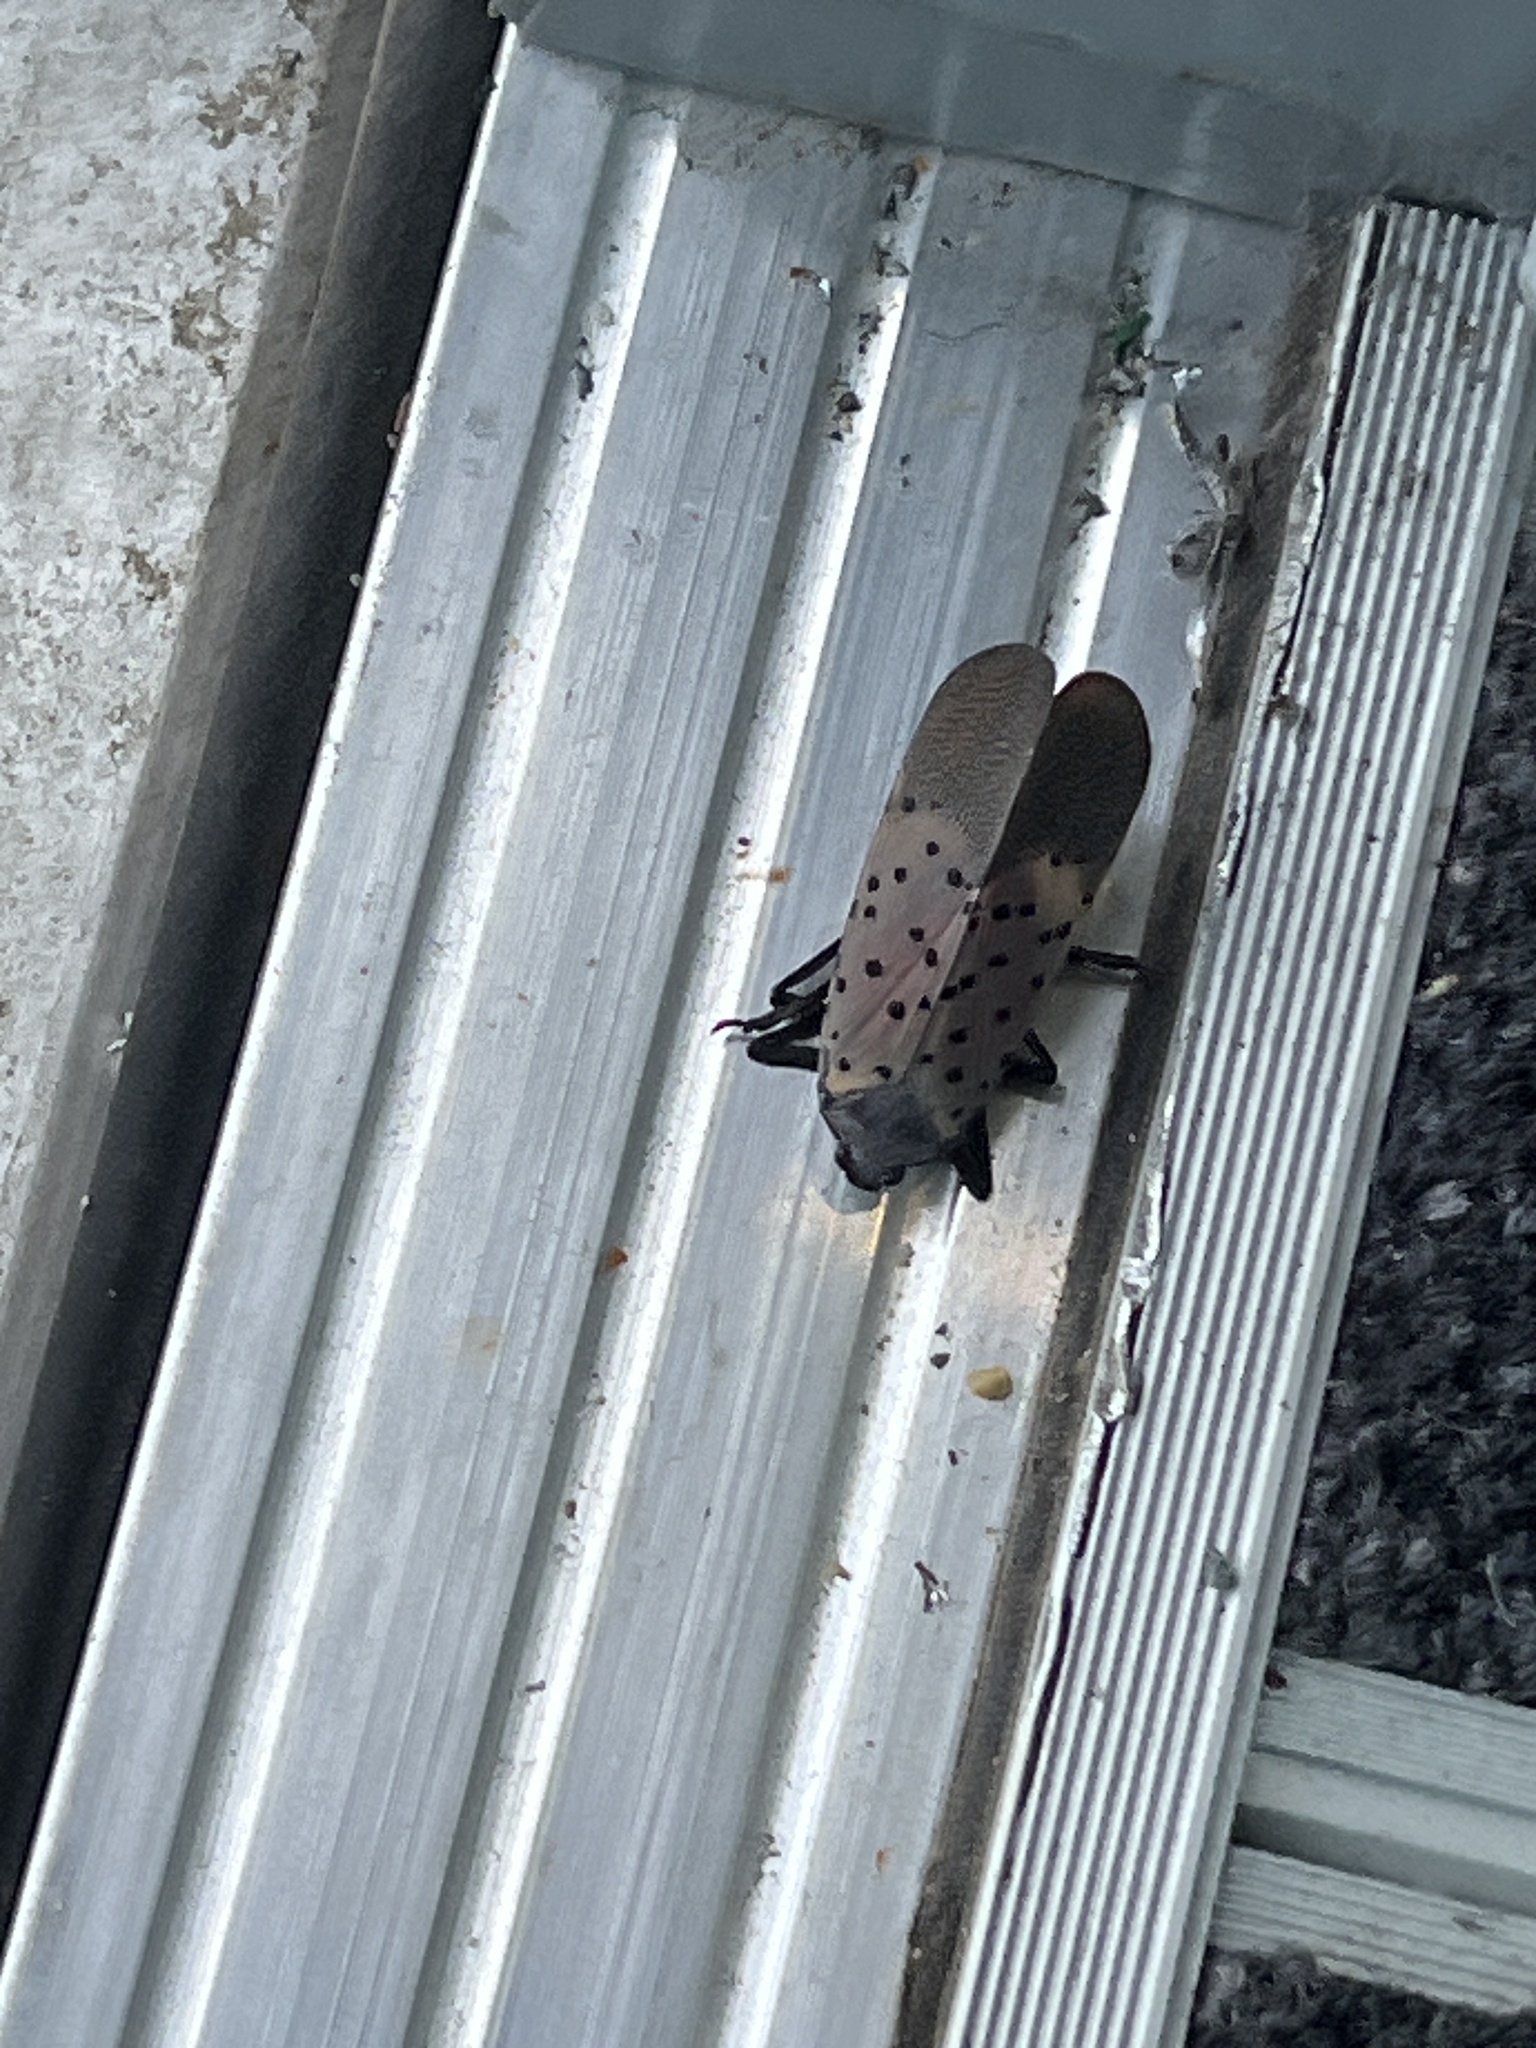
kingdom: Animalia
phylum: Arthropoda
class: Insecta
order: Hemiptera
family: Fulgoridae
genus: Lycorma
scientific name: Lycorma delicatula
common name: Spotted lanternfly
